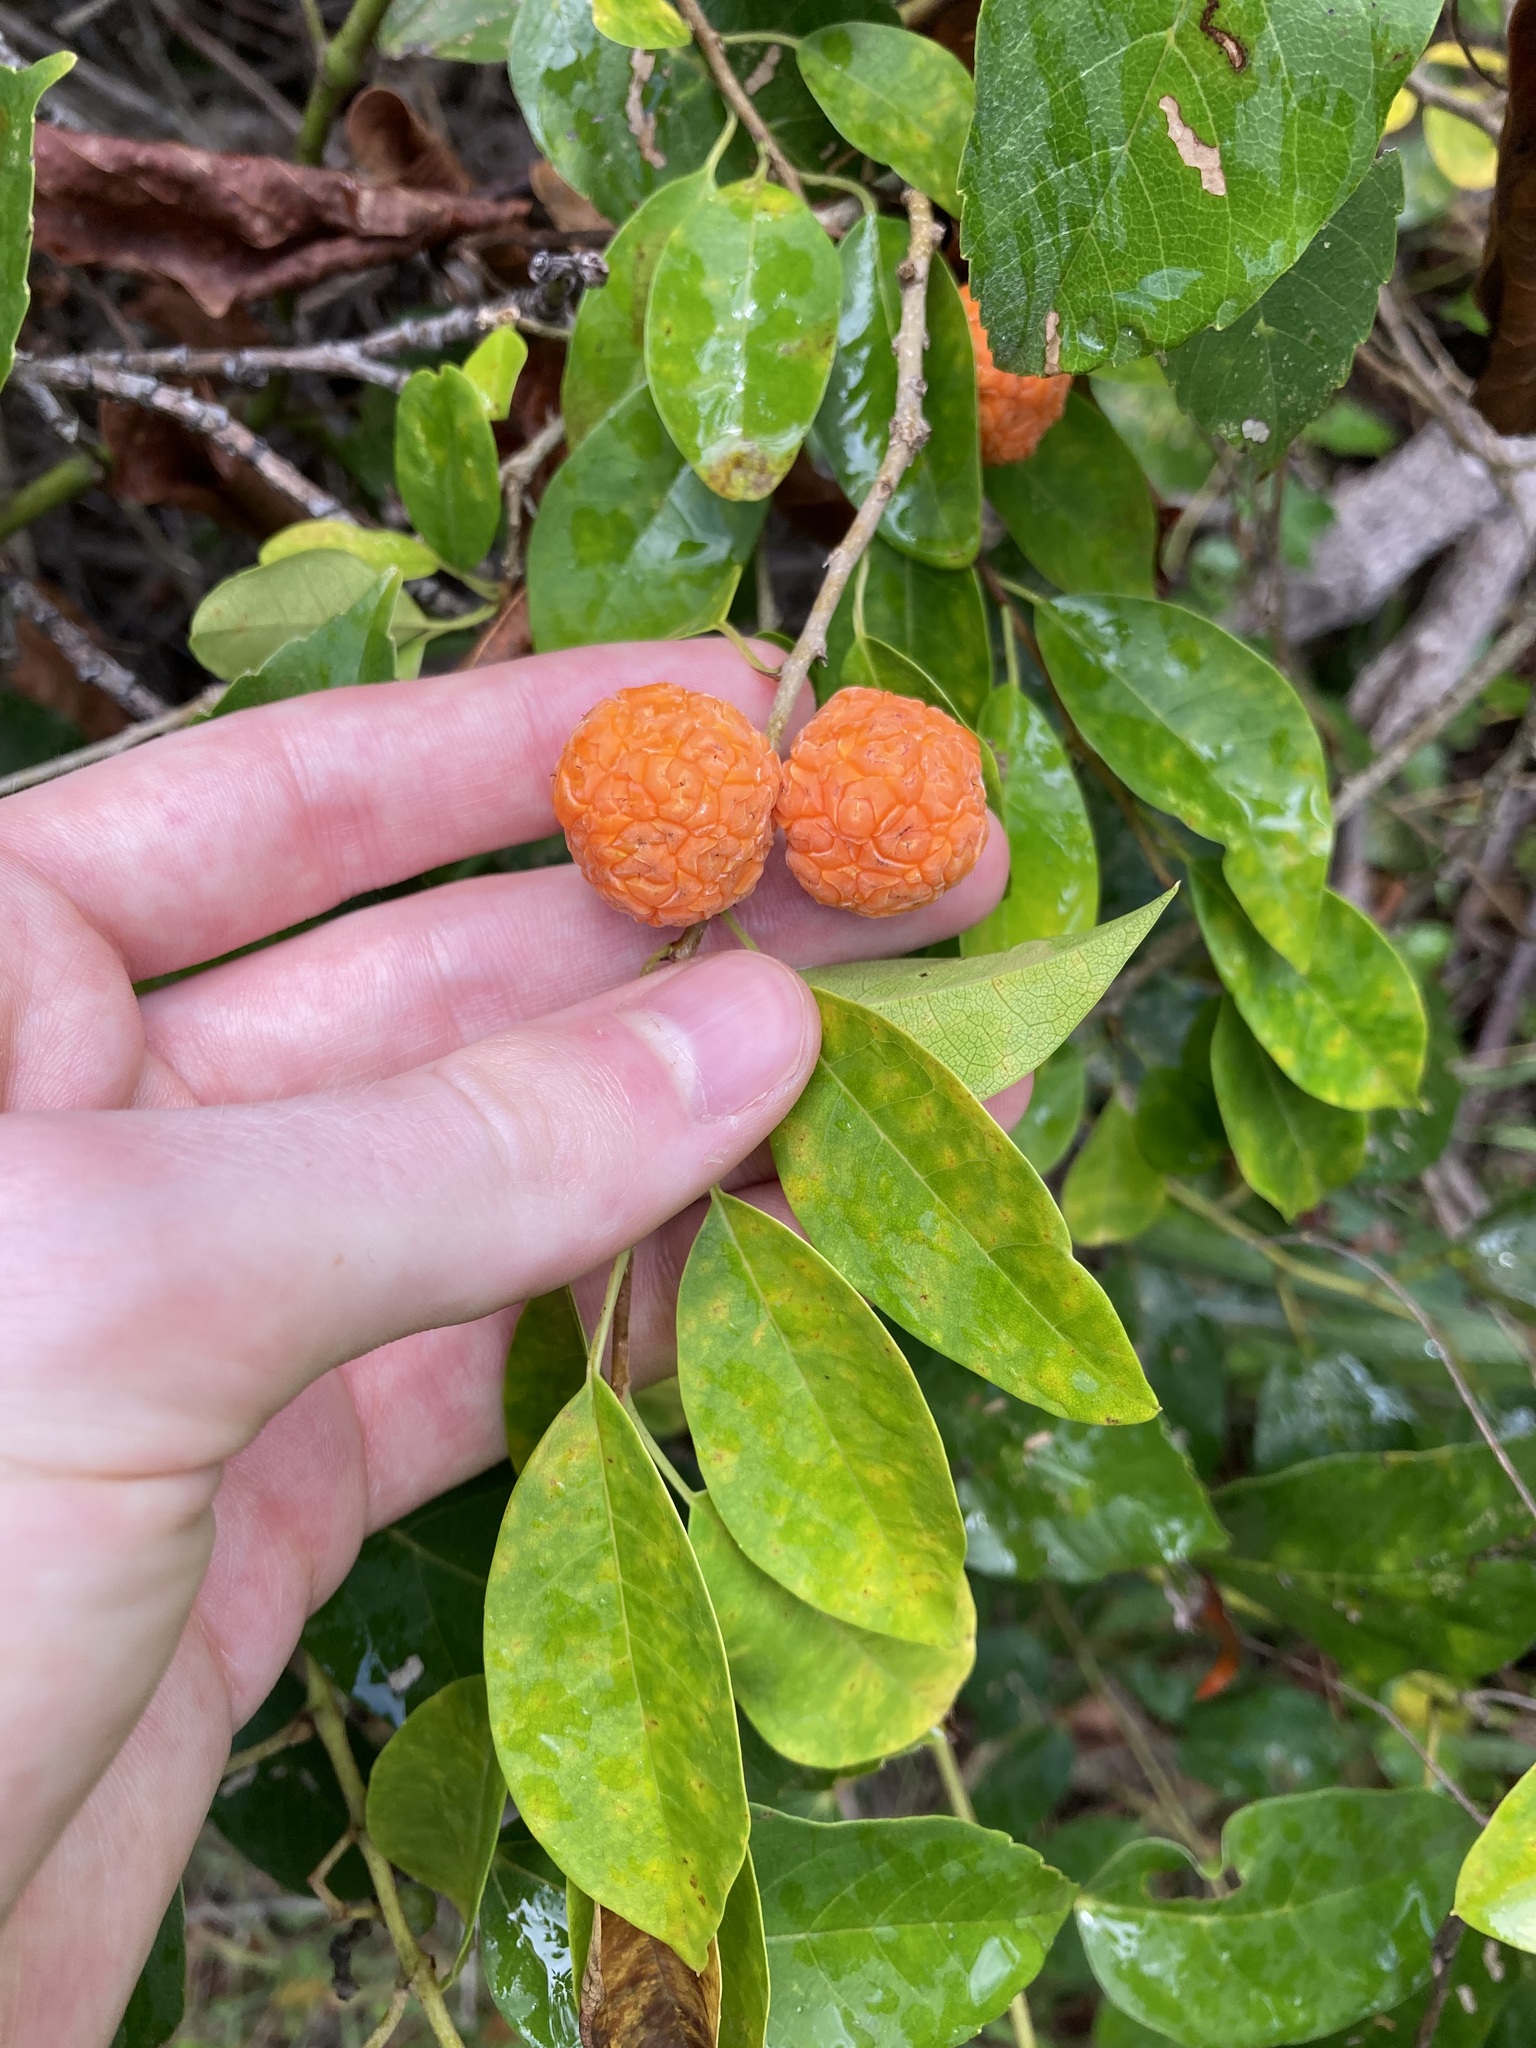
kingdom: Plantae
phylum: Tracheophyta
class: Magnoliopsida
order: Rosales
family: Moraceae
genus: Maclura
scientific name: Maclura cochinchinensis
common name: Cockspurthorn
